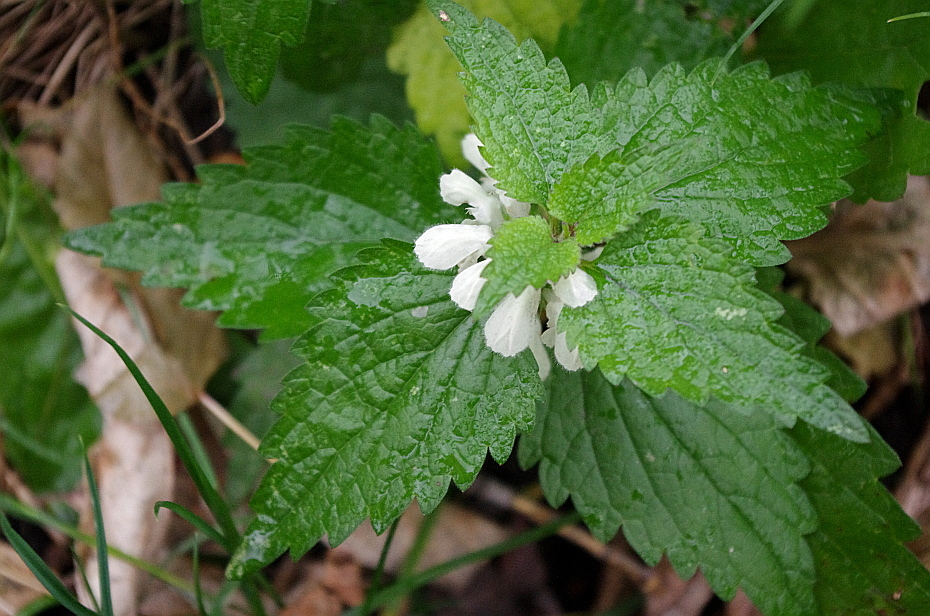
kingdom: Plantae
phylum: Tracheophyta
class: Magnoliopsida
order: Lamiales
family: Lamiaceae
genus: Lamium
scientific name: Lamium album
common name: White dead-nettle
